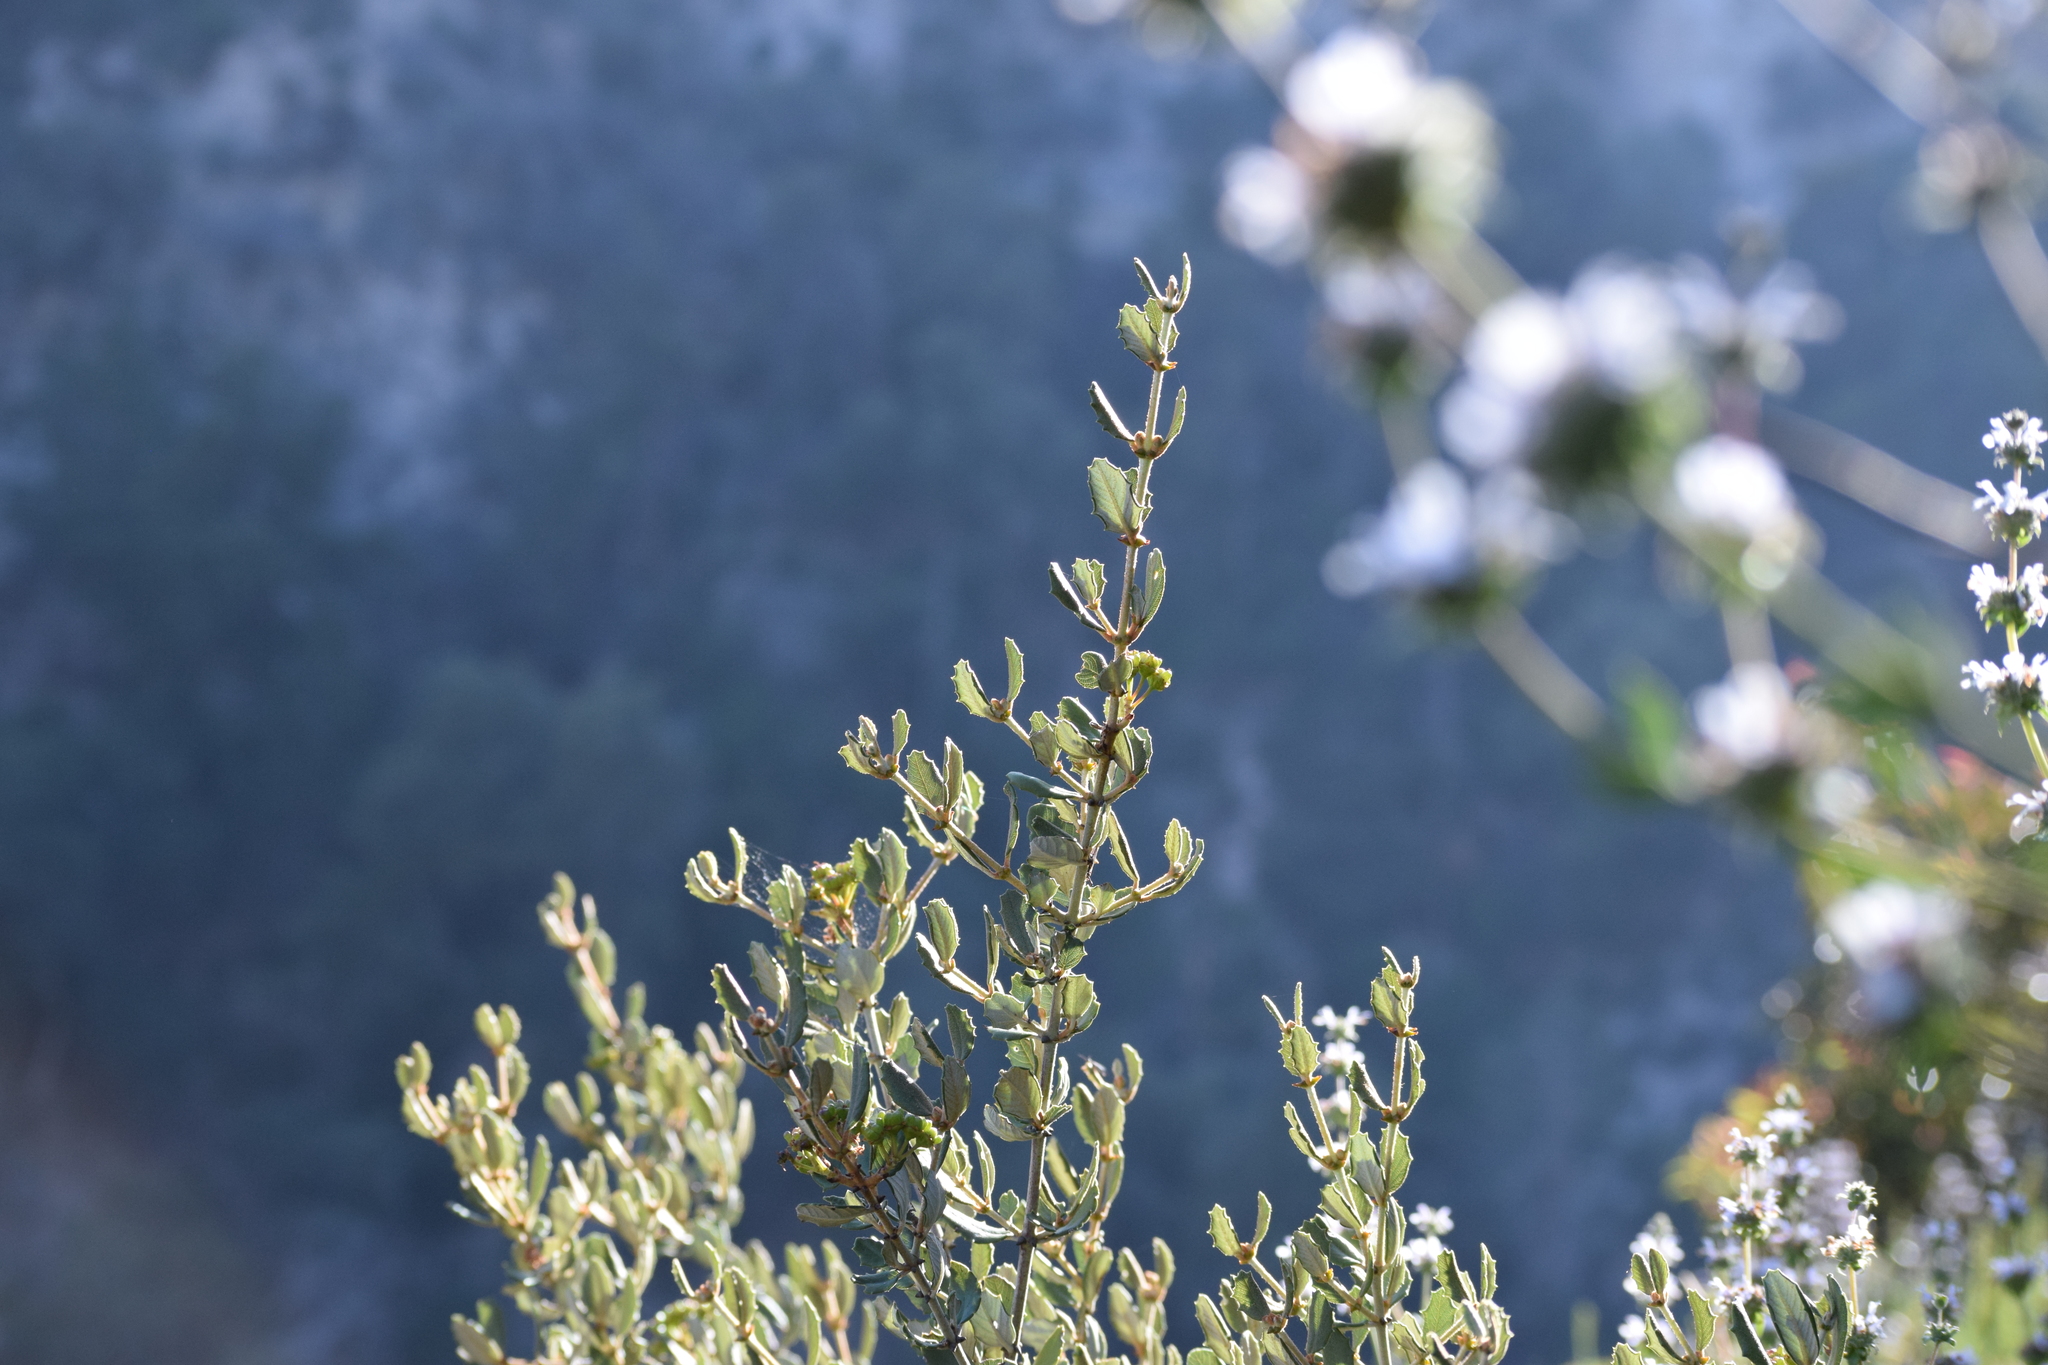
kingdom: Plantae
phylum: Tracheophyta
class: Magnoliopsida
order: Rosales
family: Rhamnaceae
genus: Ceanothus
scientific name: Ceanothus crassifolius
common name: Hoaryleaf ceanothus
